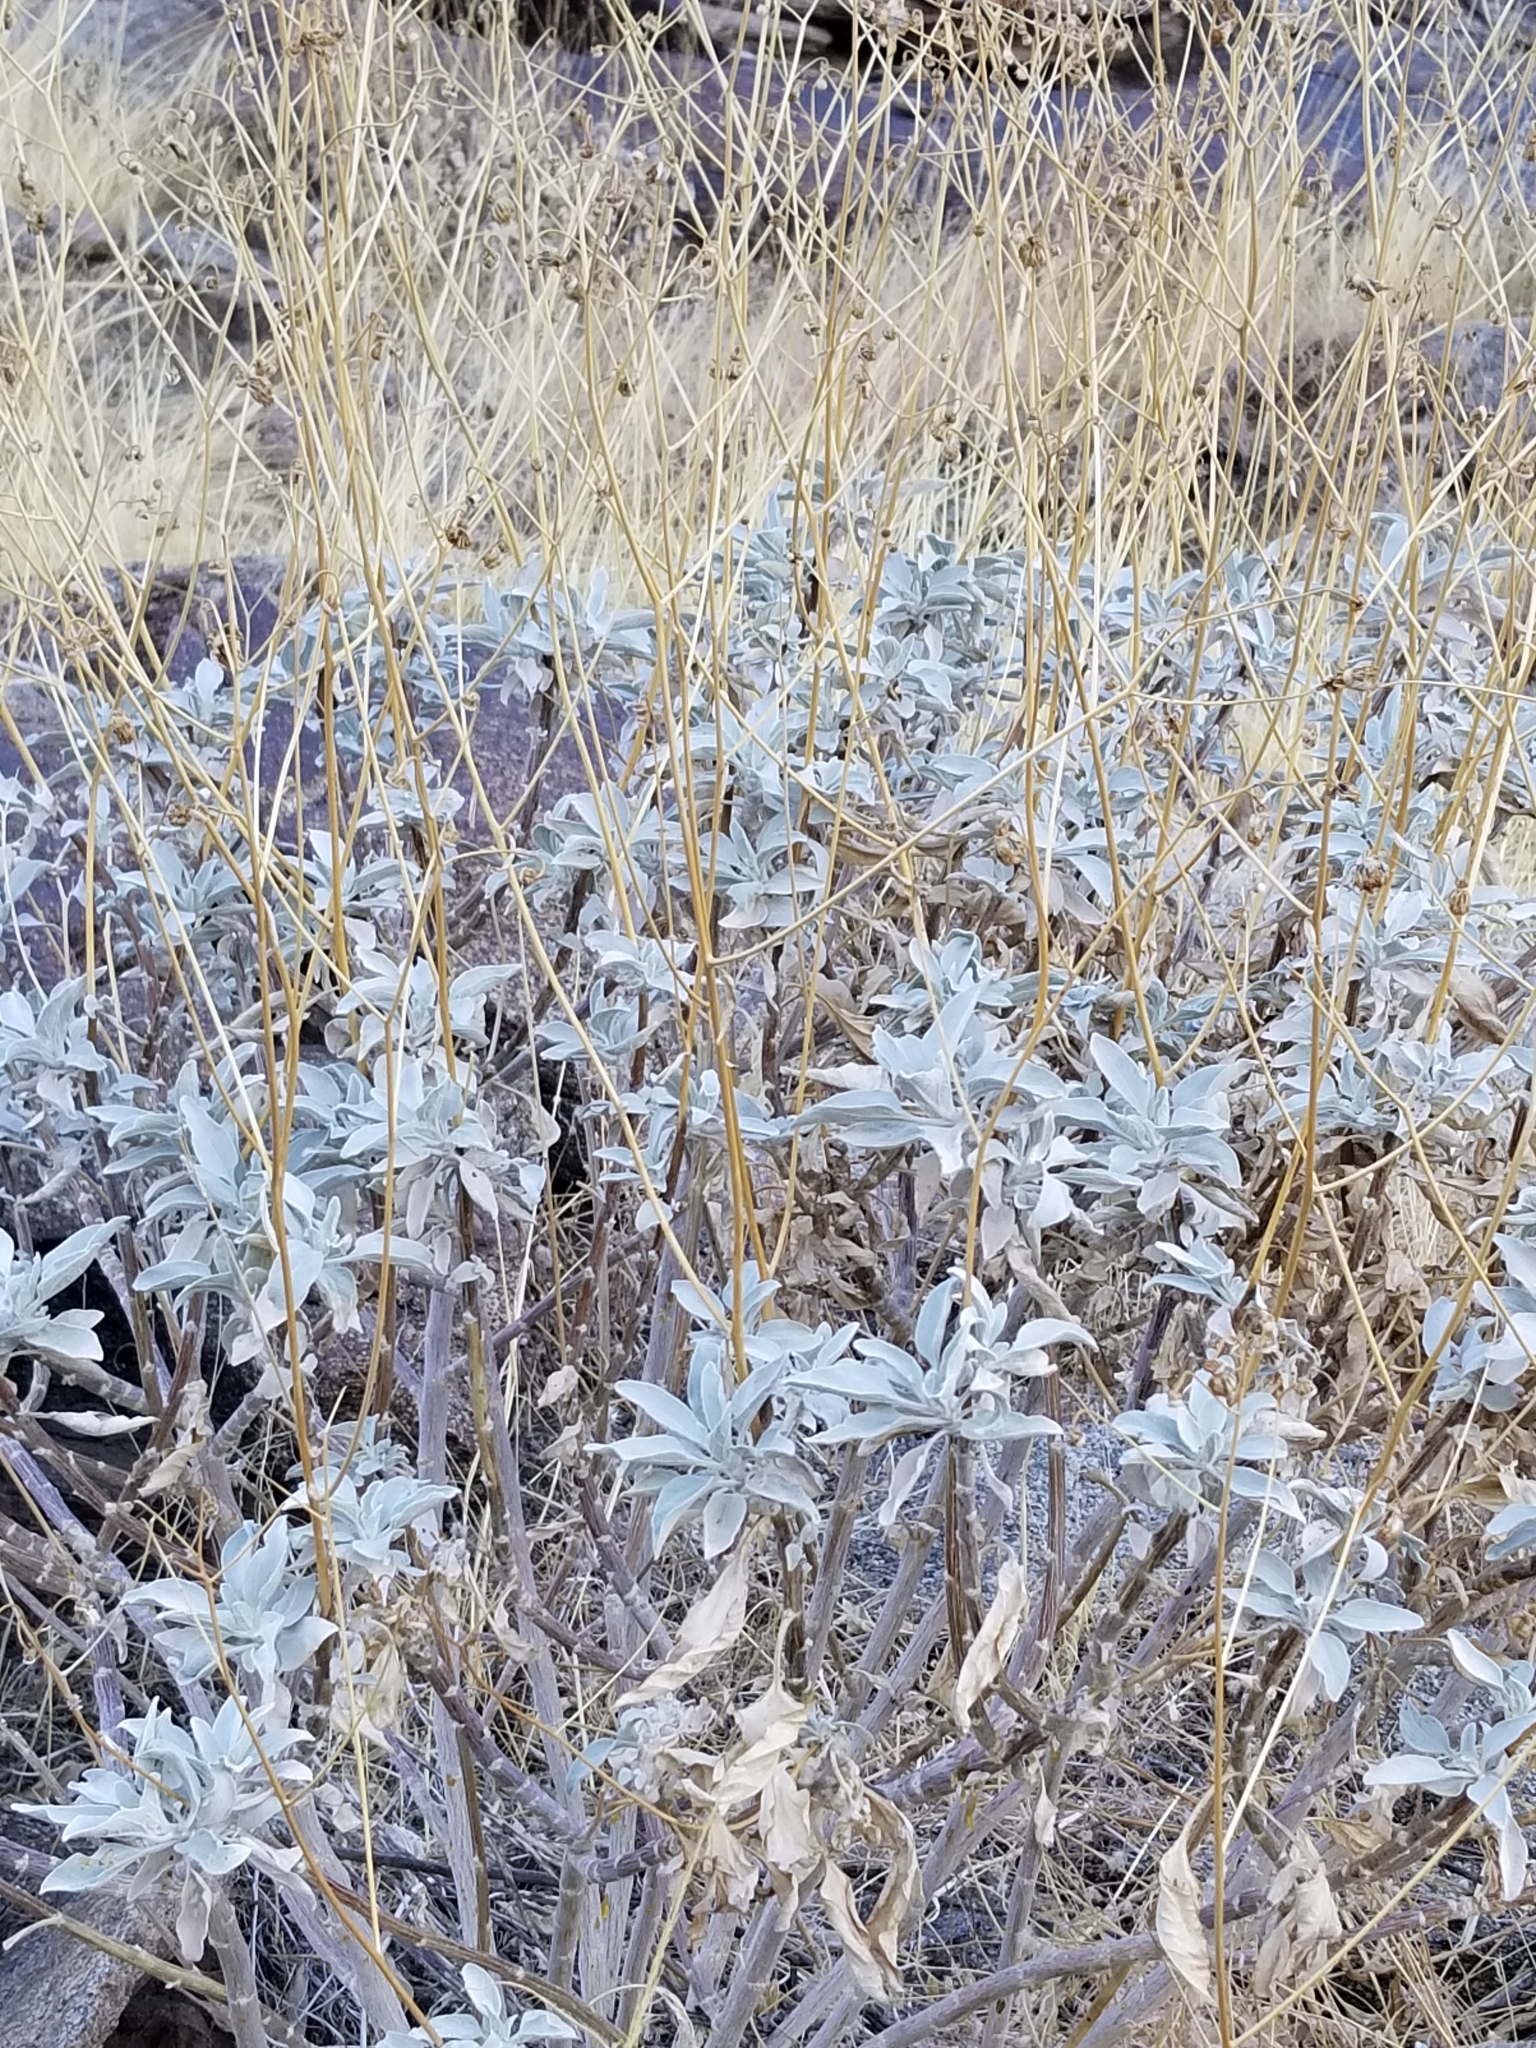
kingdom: Plantae
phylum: Tracheophyta
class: Magnoliopsida
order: Asterales
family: Asteraceae
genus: Encelia
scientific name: Encelia farinosa
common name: Brittlebush
